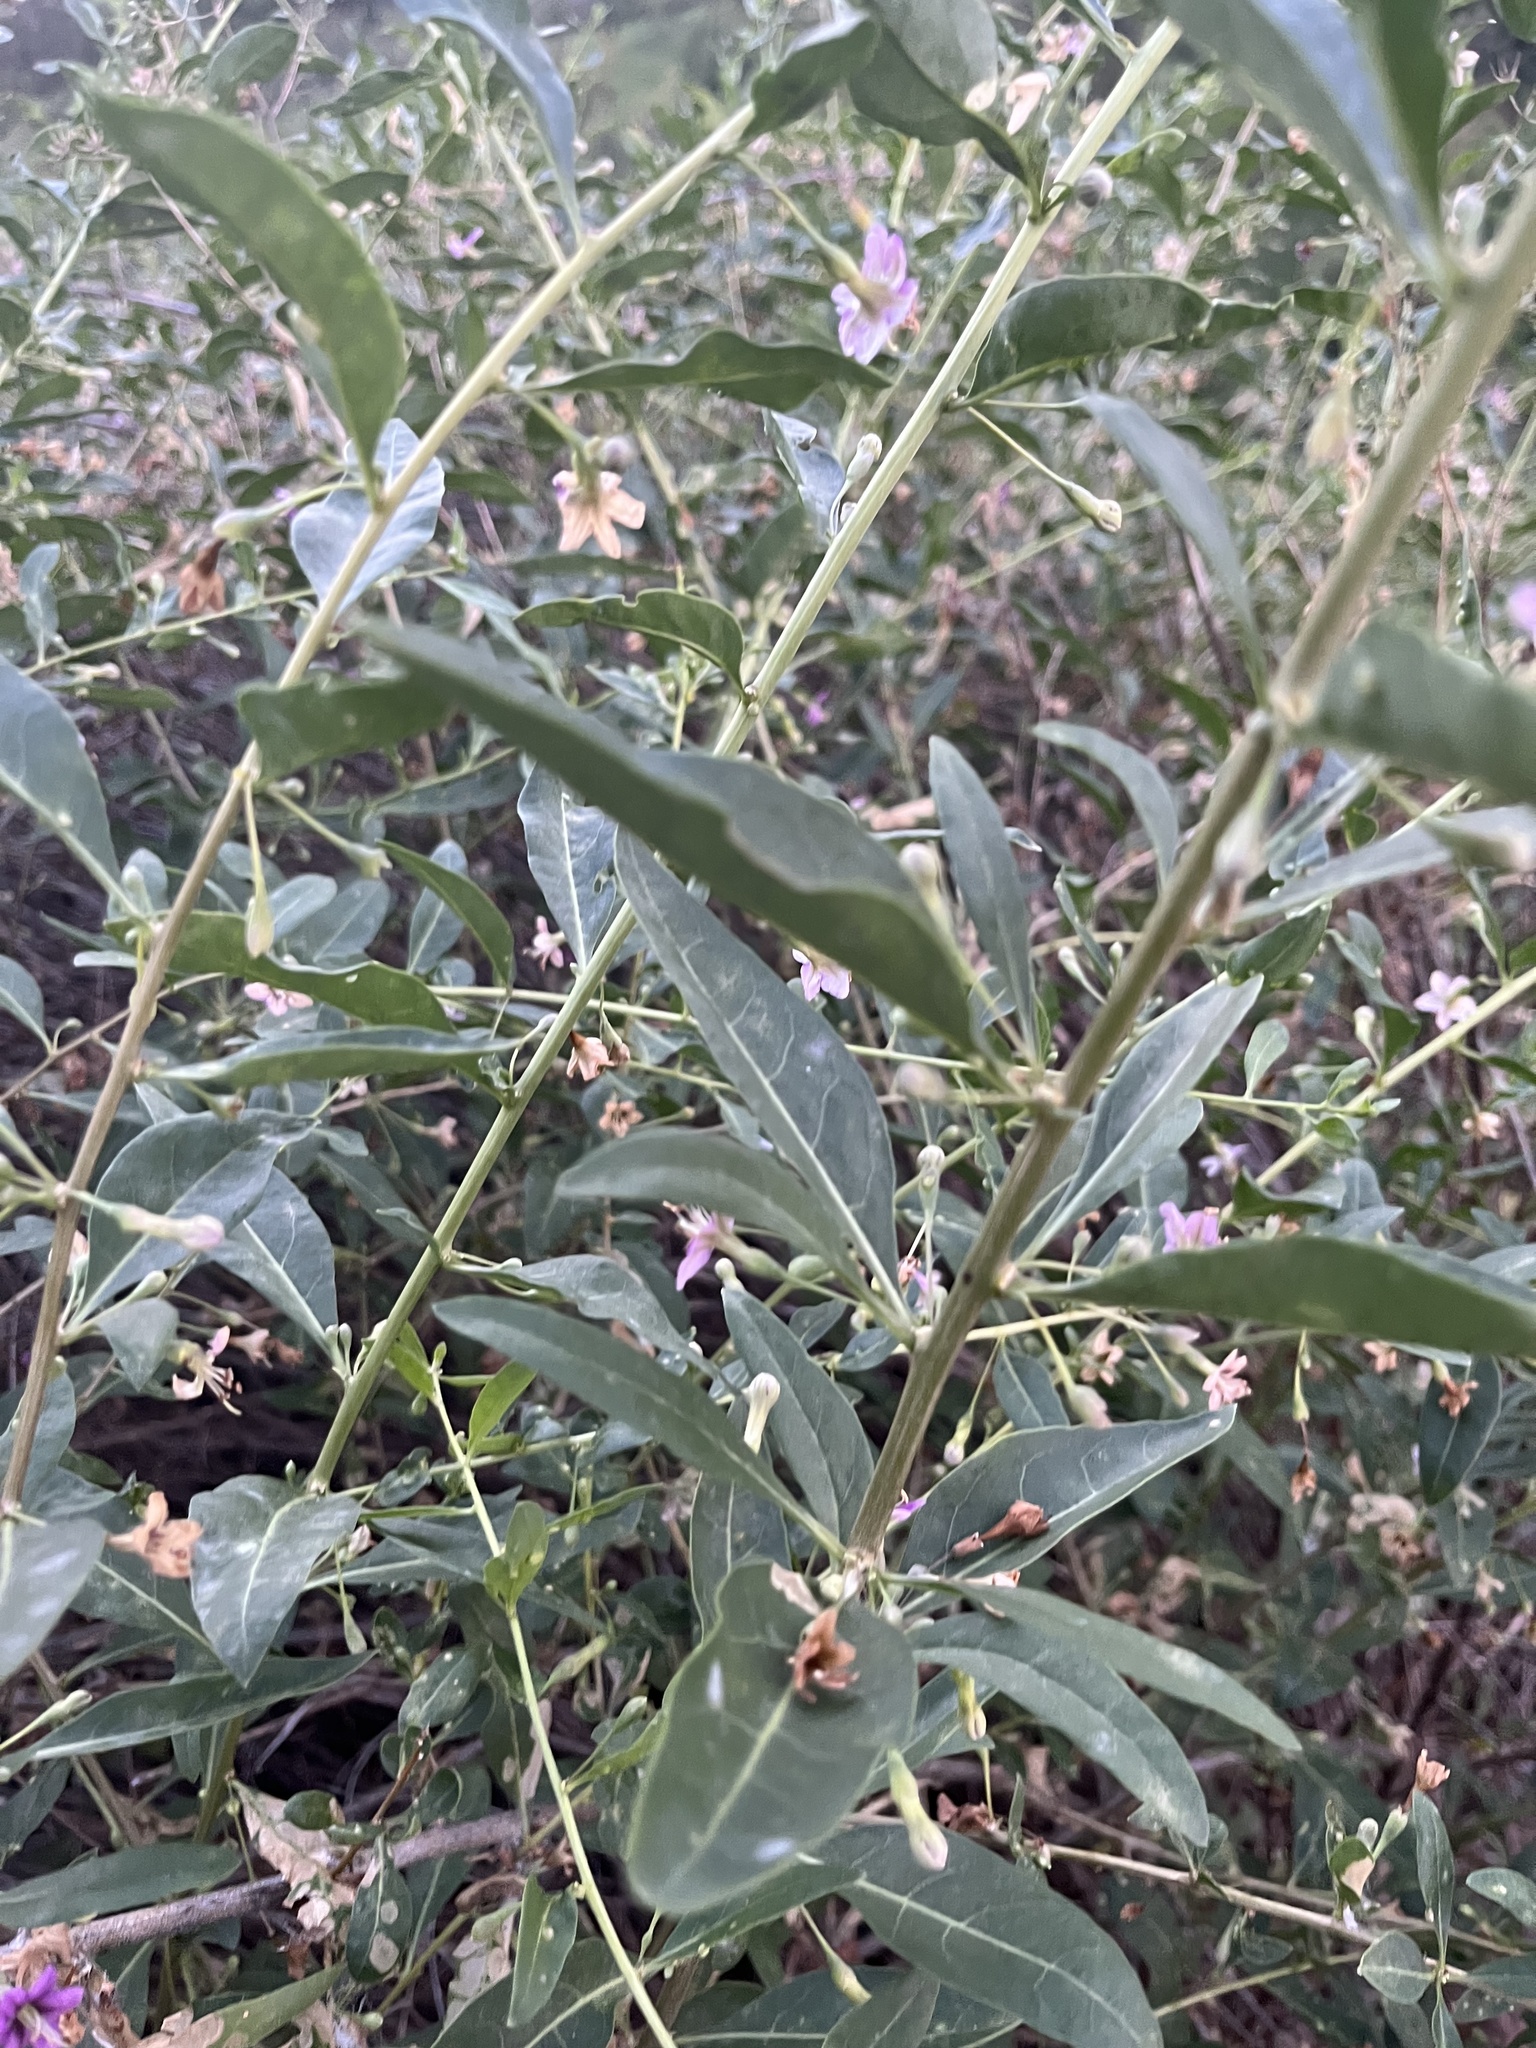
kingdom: Plantae
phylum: Tracheophyta
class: Magnoliopsida
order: Solanales
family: Solanaceae
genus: Lycium
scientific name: Lycium barbarum
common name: Duke of argyll's teaplant
